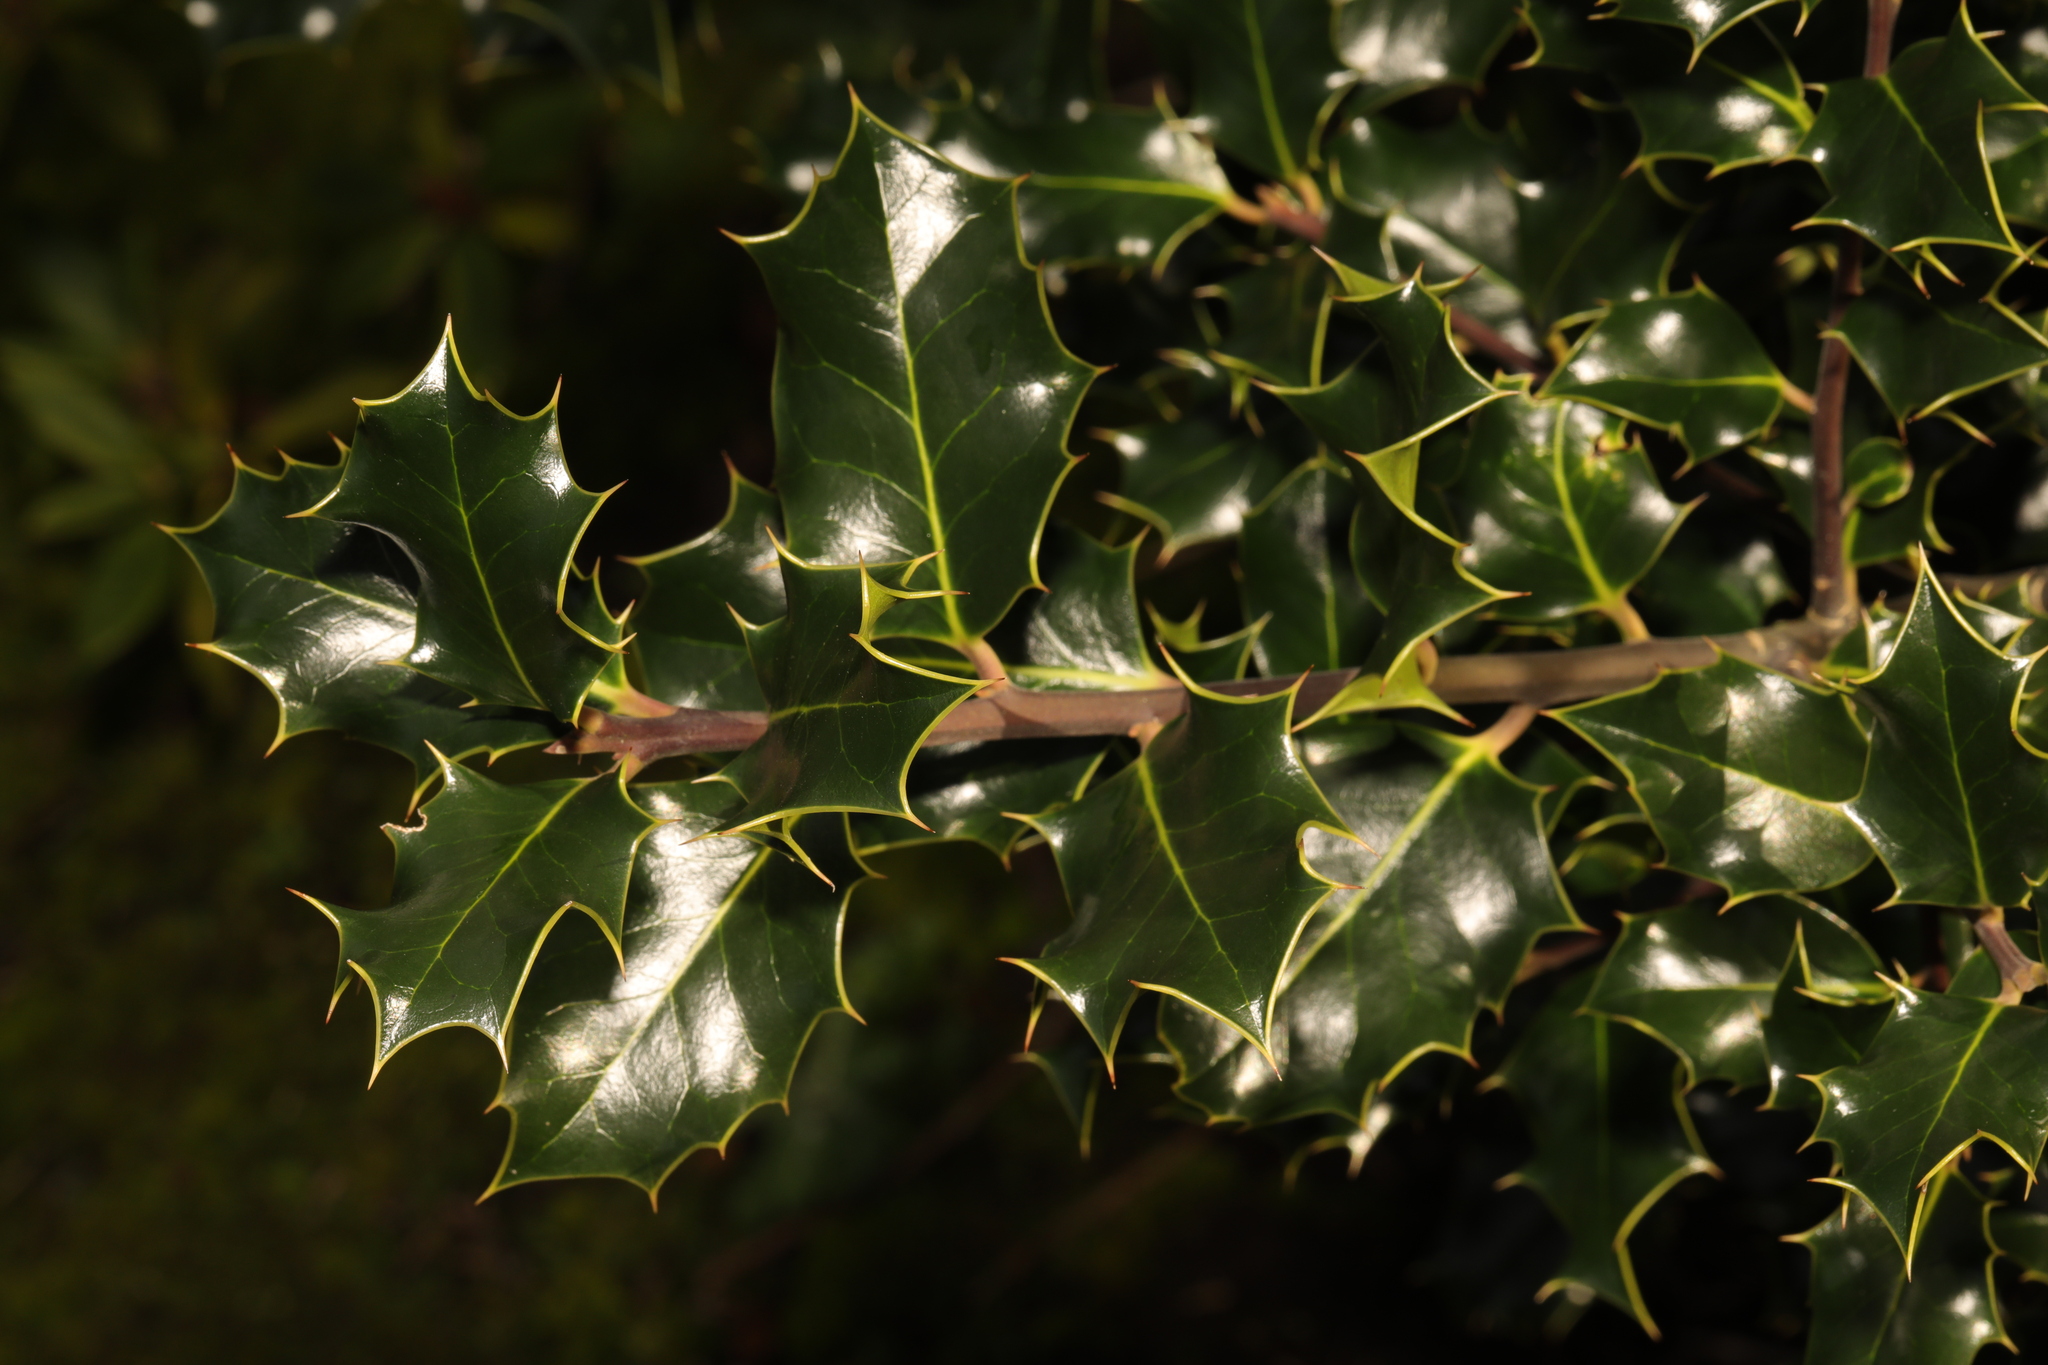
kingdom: Plantae
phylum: Tracheophyta
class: Magnoliopsida
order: Aquifoliales
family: Aquifoliaceae
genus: Ilex
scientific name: Ilex aquifolium
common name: English holly
